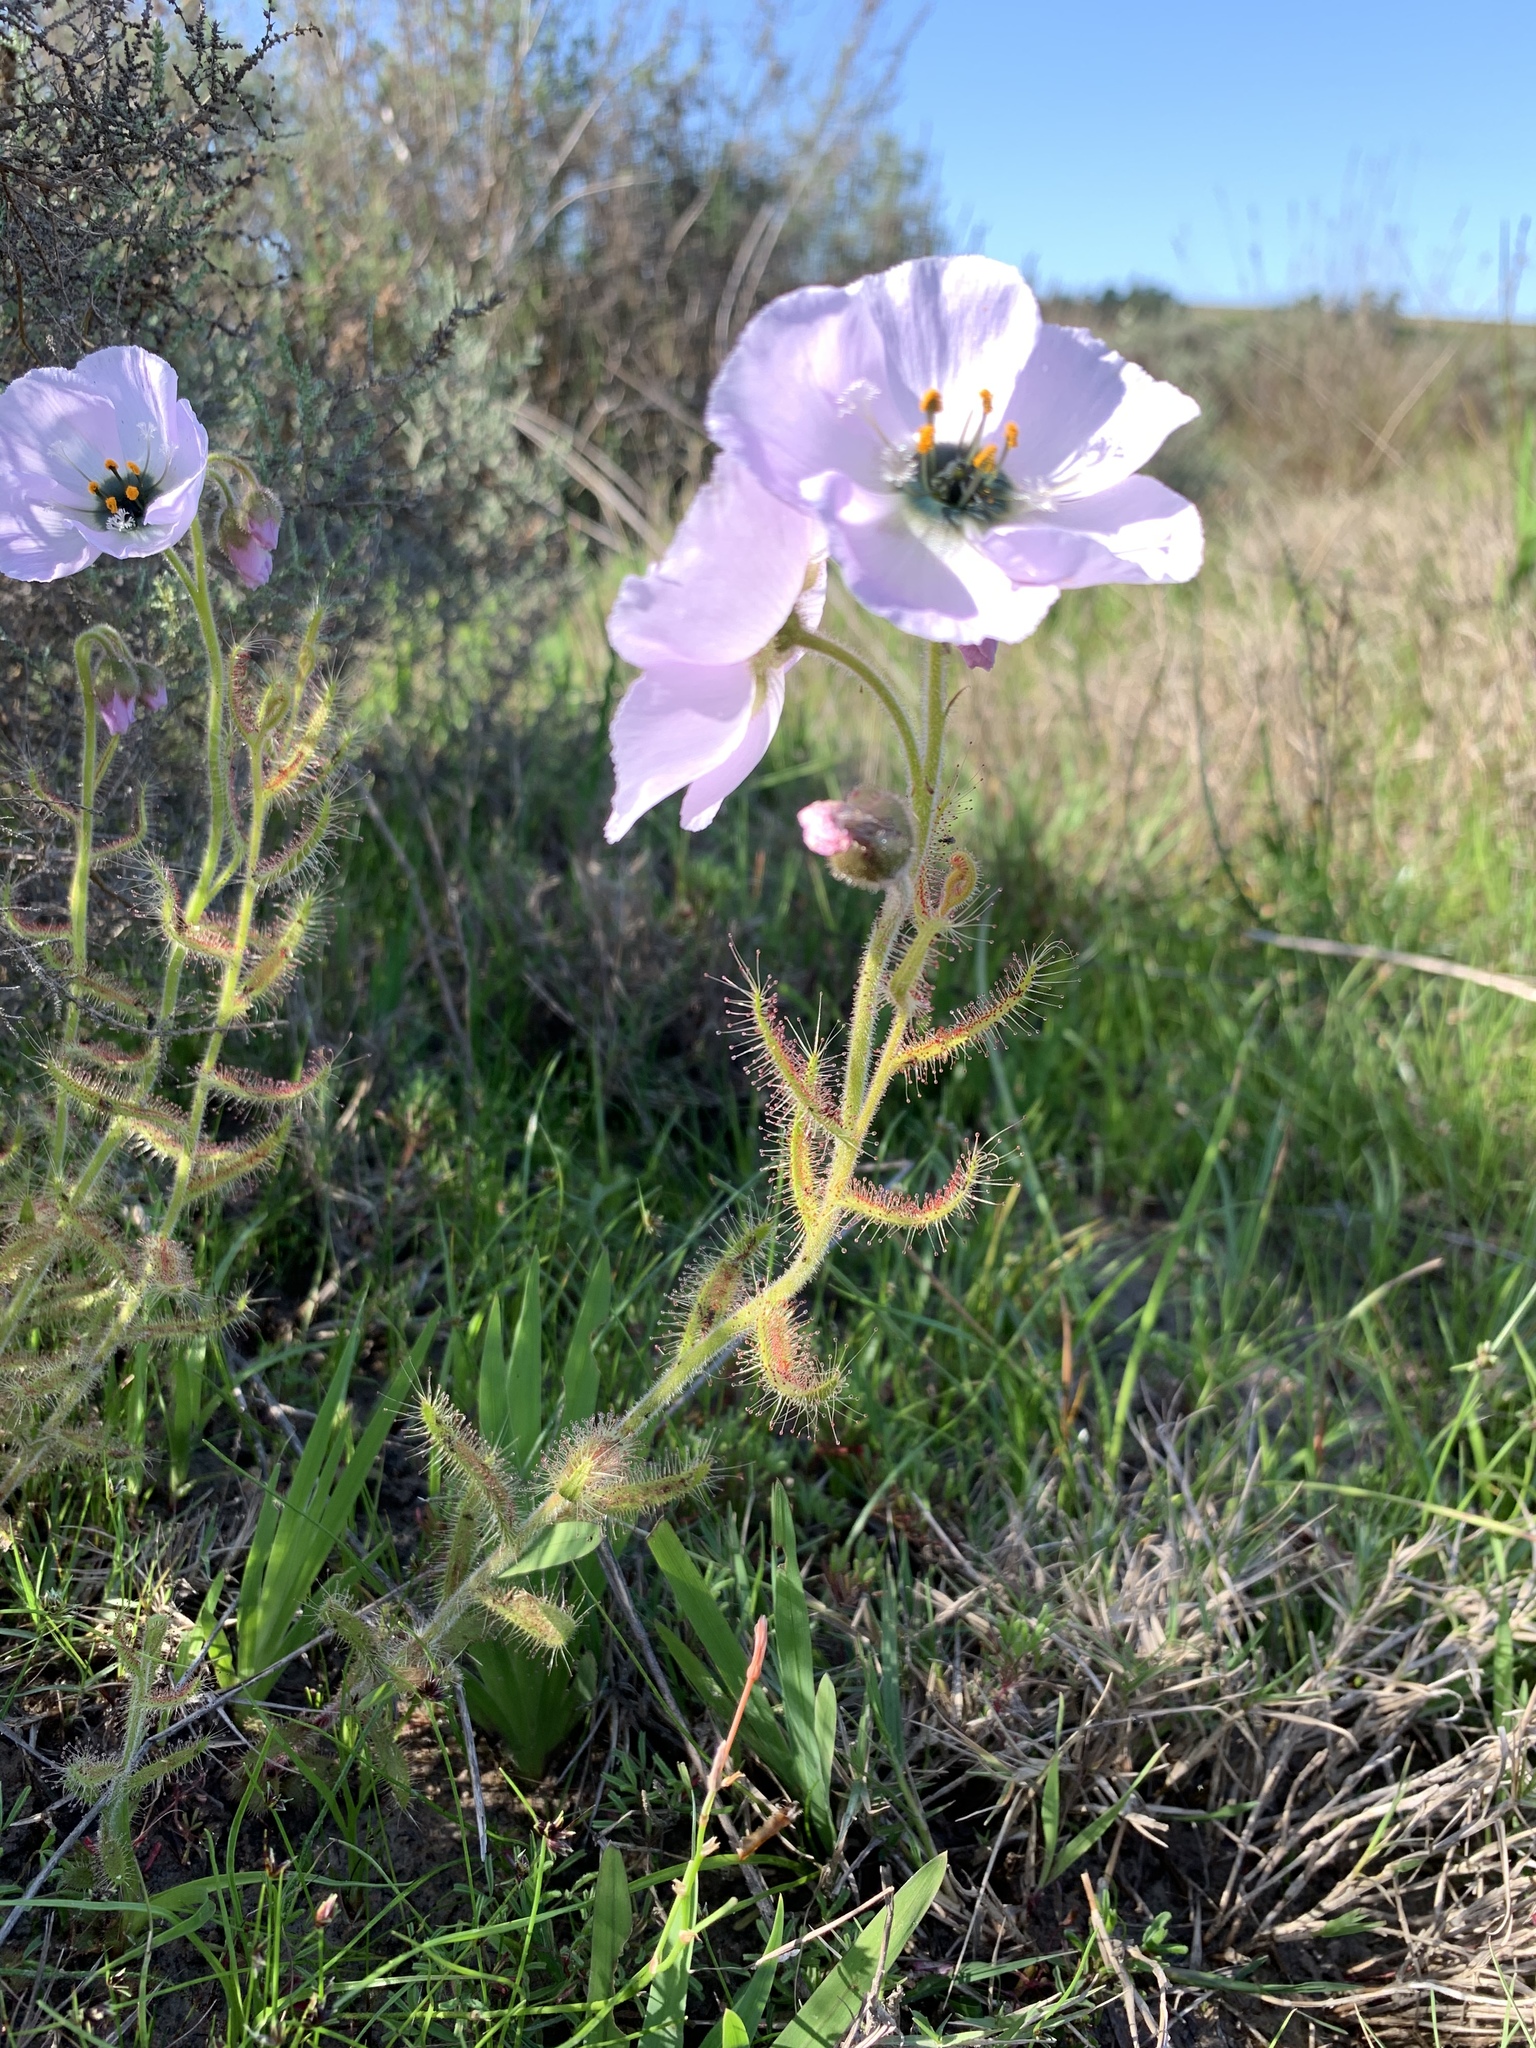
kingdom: Plantae
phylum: Tracheophyta
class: Magnoliopsida
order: Caryophyllales
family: Droseraceae
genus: Drosera
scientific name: Drosera cistiflora
